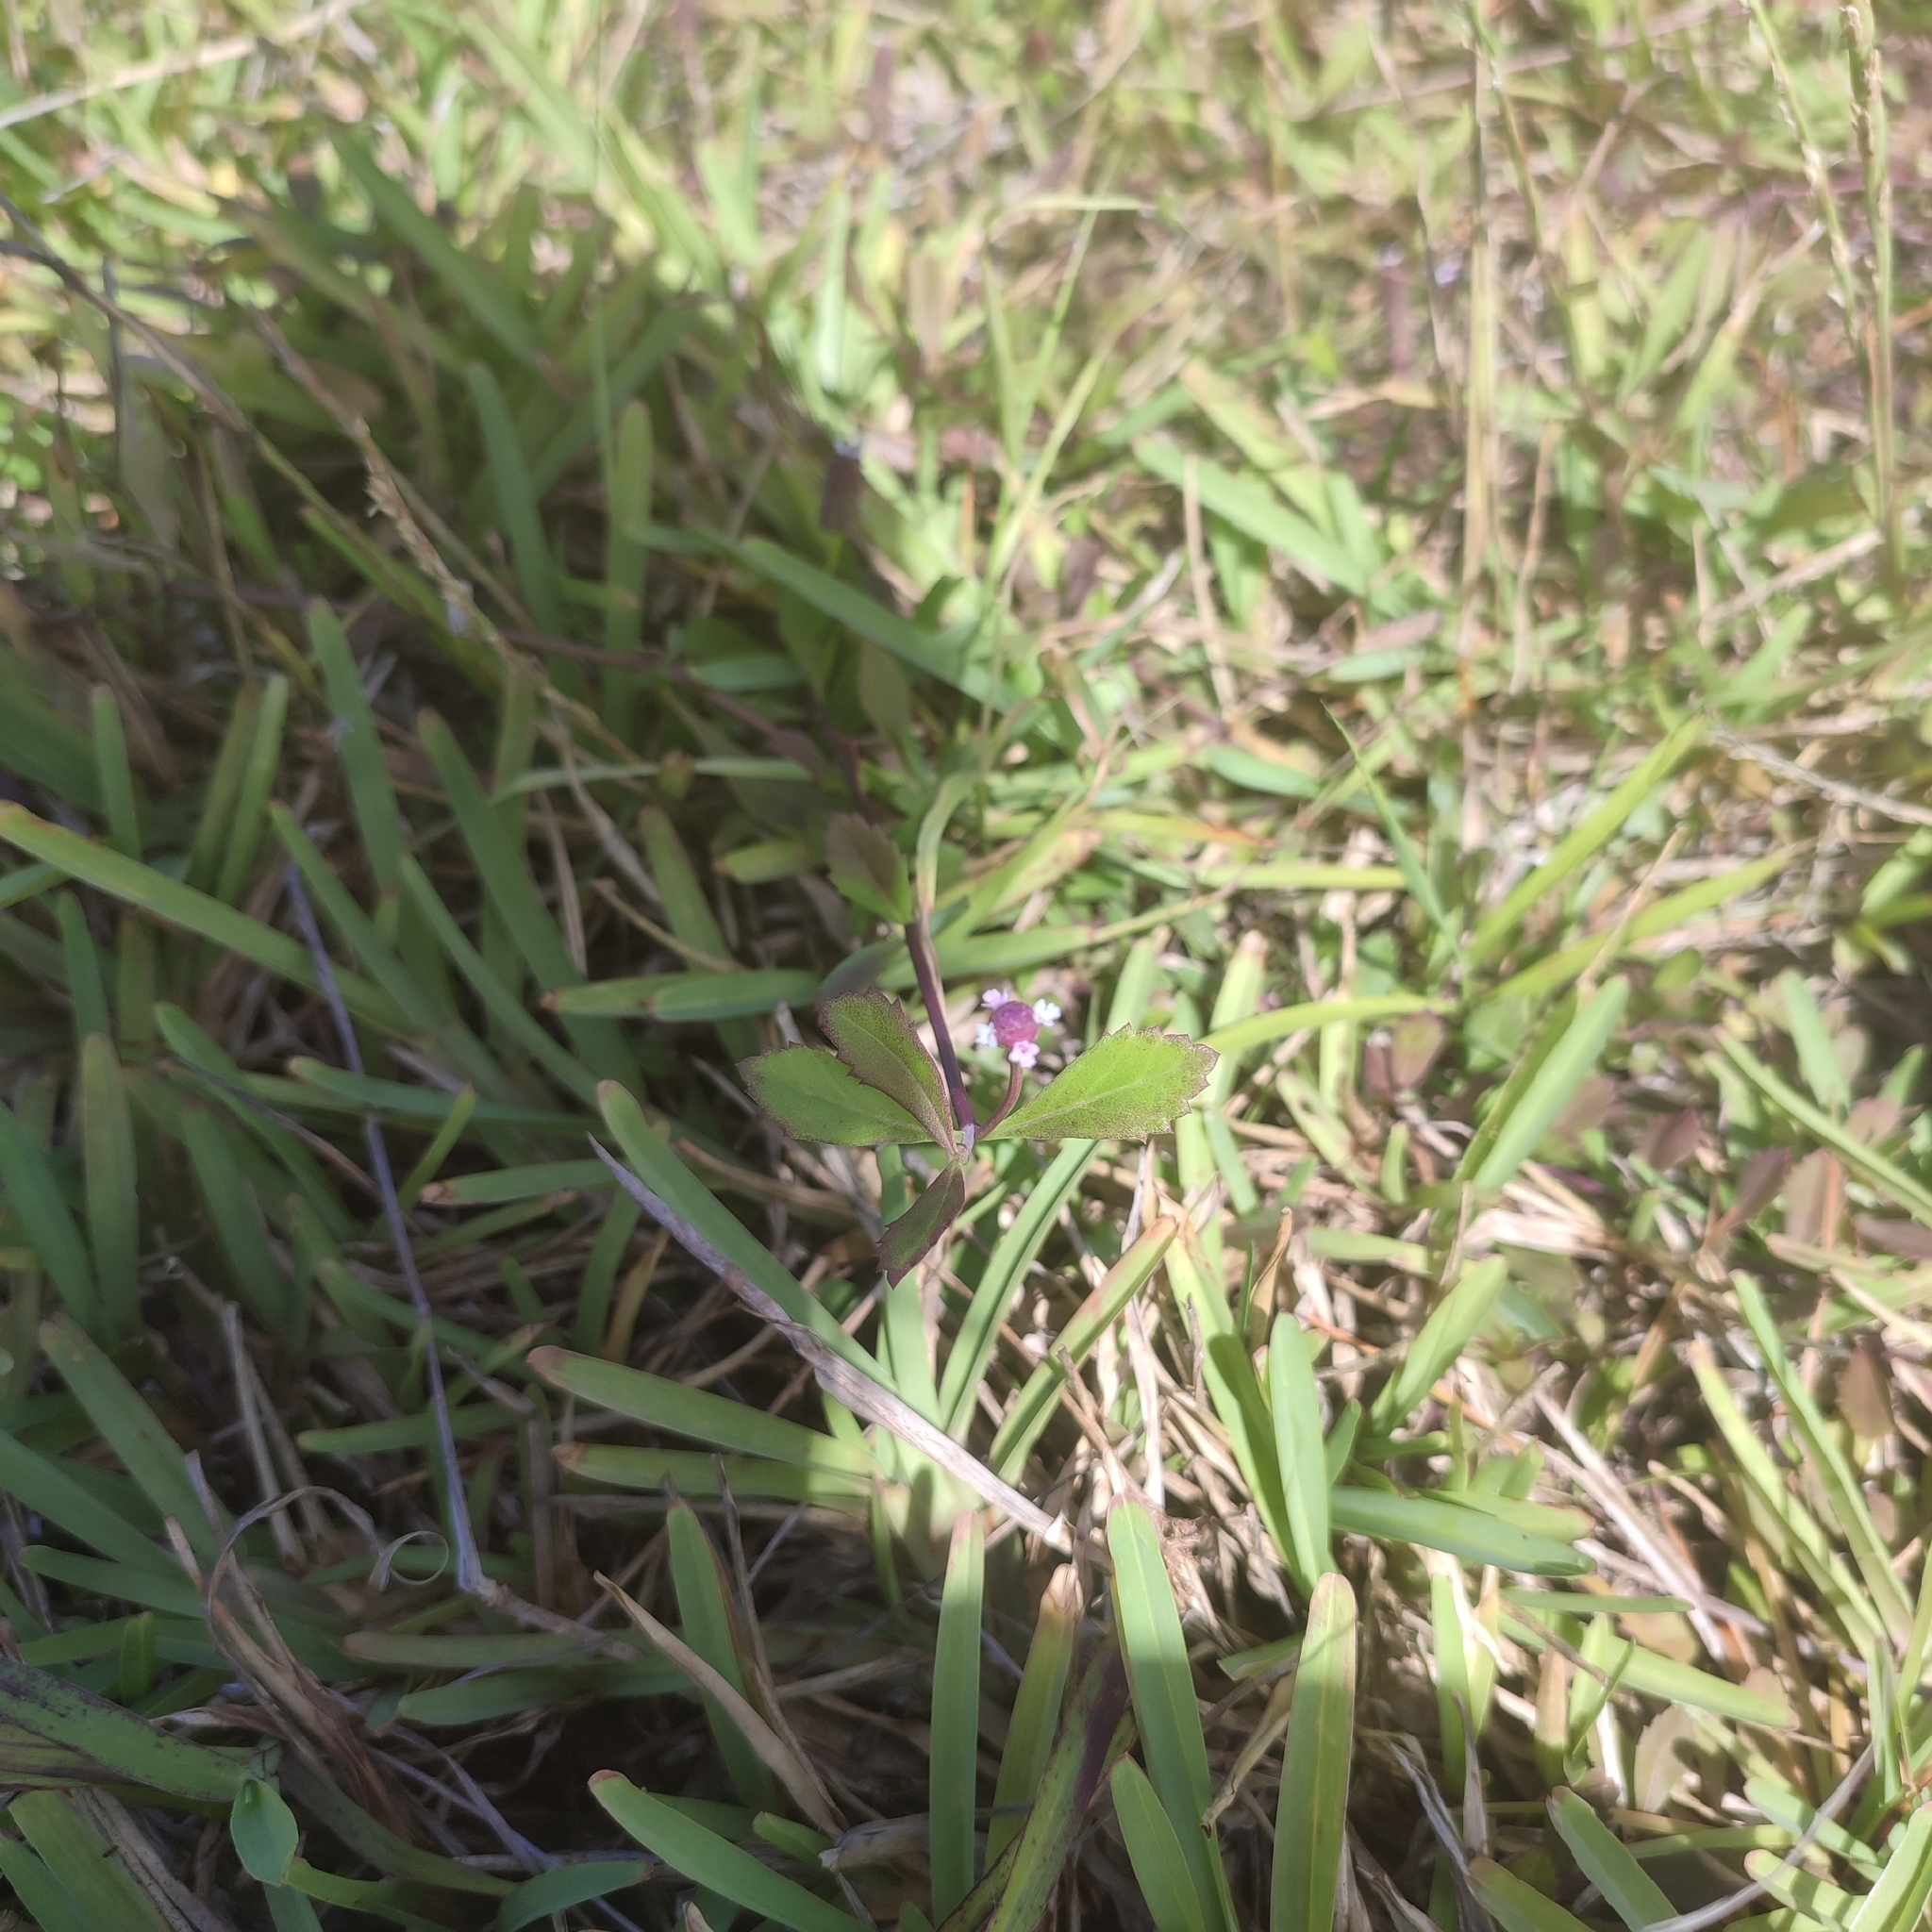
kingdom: Plantae
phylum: Tracheophyta
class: Magnoliopsida
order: Lamiales
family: Verbenaceae
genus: Phyla
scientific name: Phyla nodiflora
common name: Frogfruit
